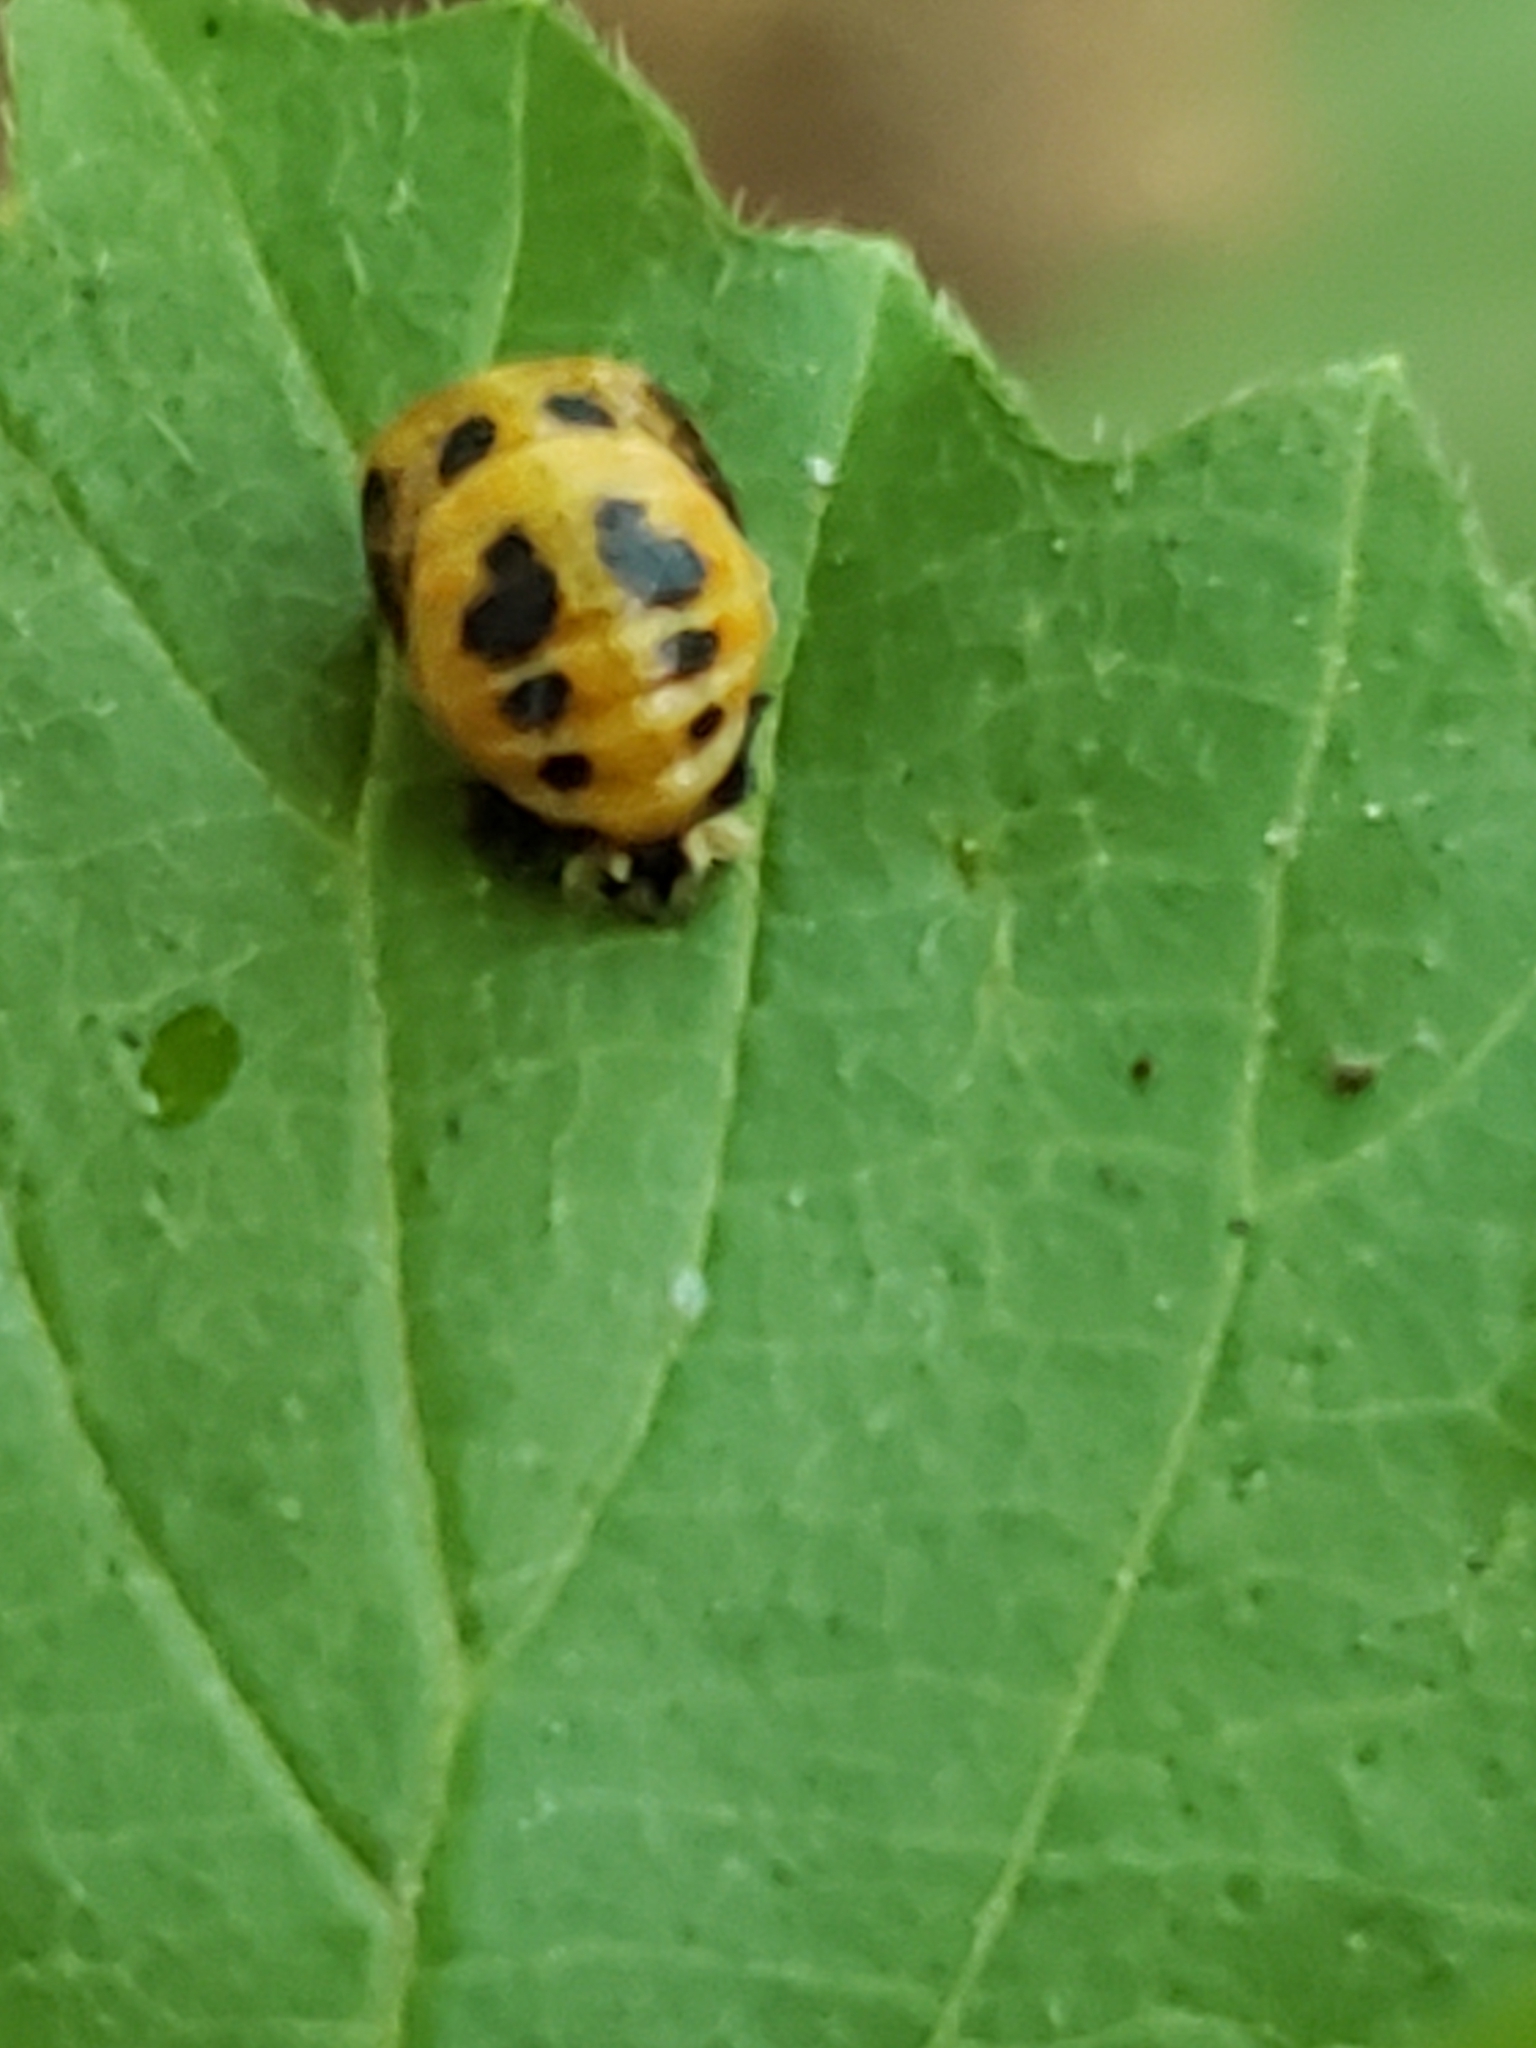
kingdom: Animalia
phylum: Arthropoda
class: Insecta
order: Coleoptera
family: Coccinellidae
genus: Harmonia
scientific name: Harmonia axyridis
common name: Harlequin ladybird
